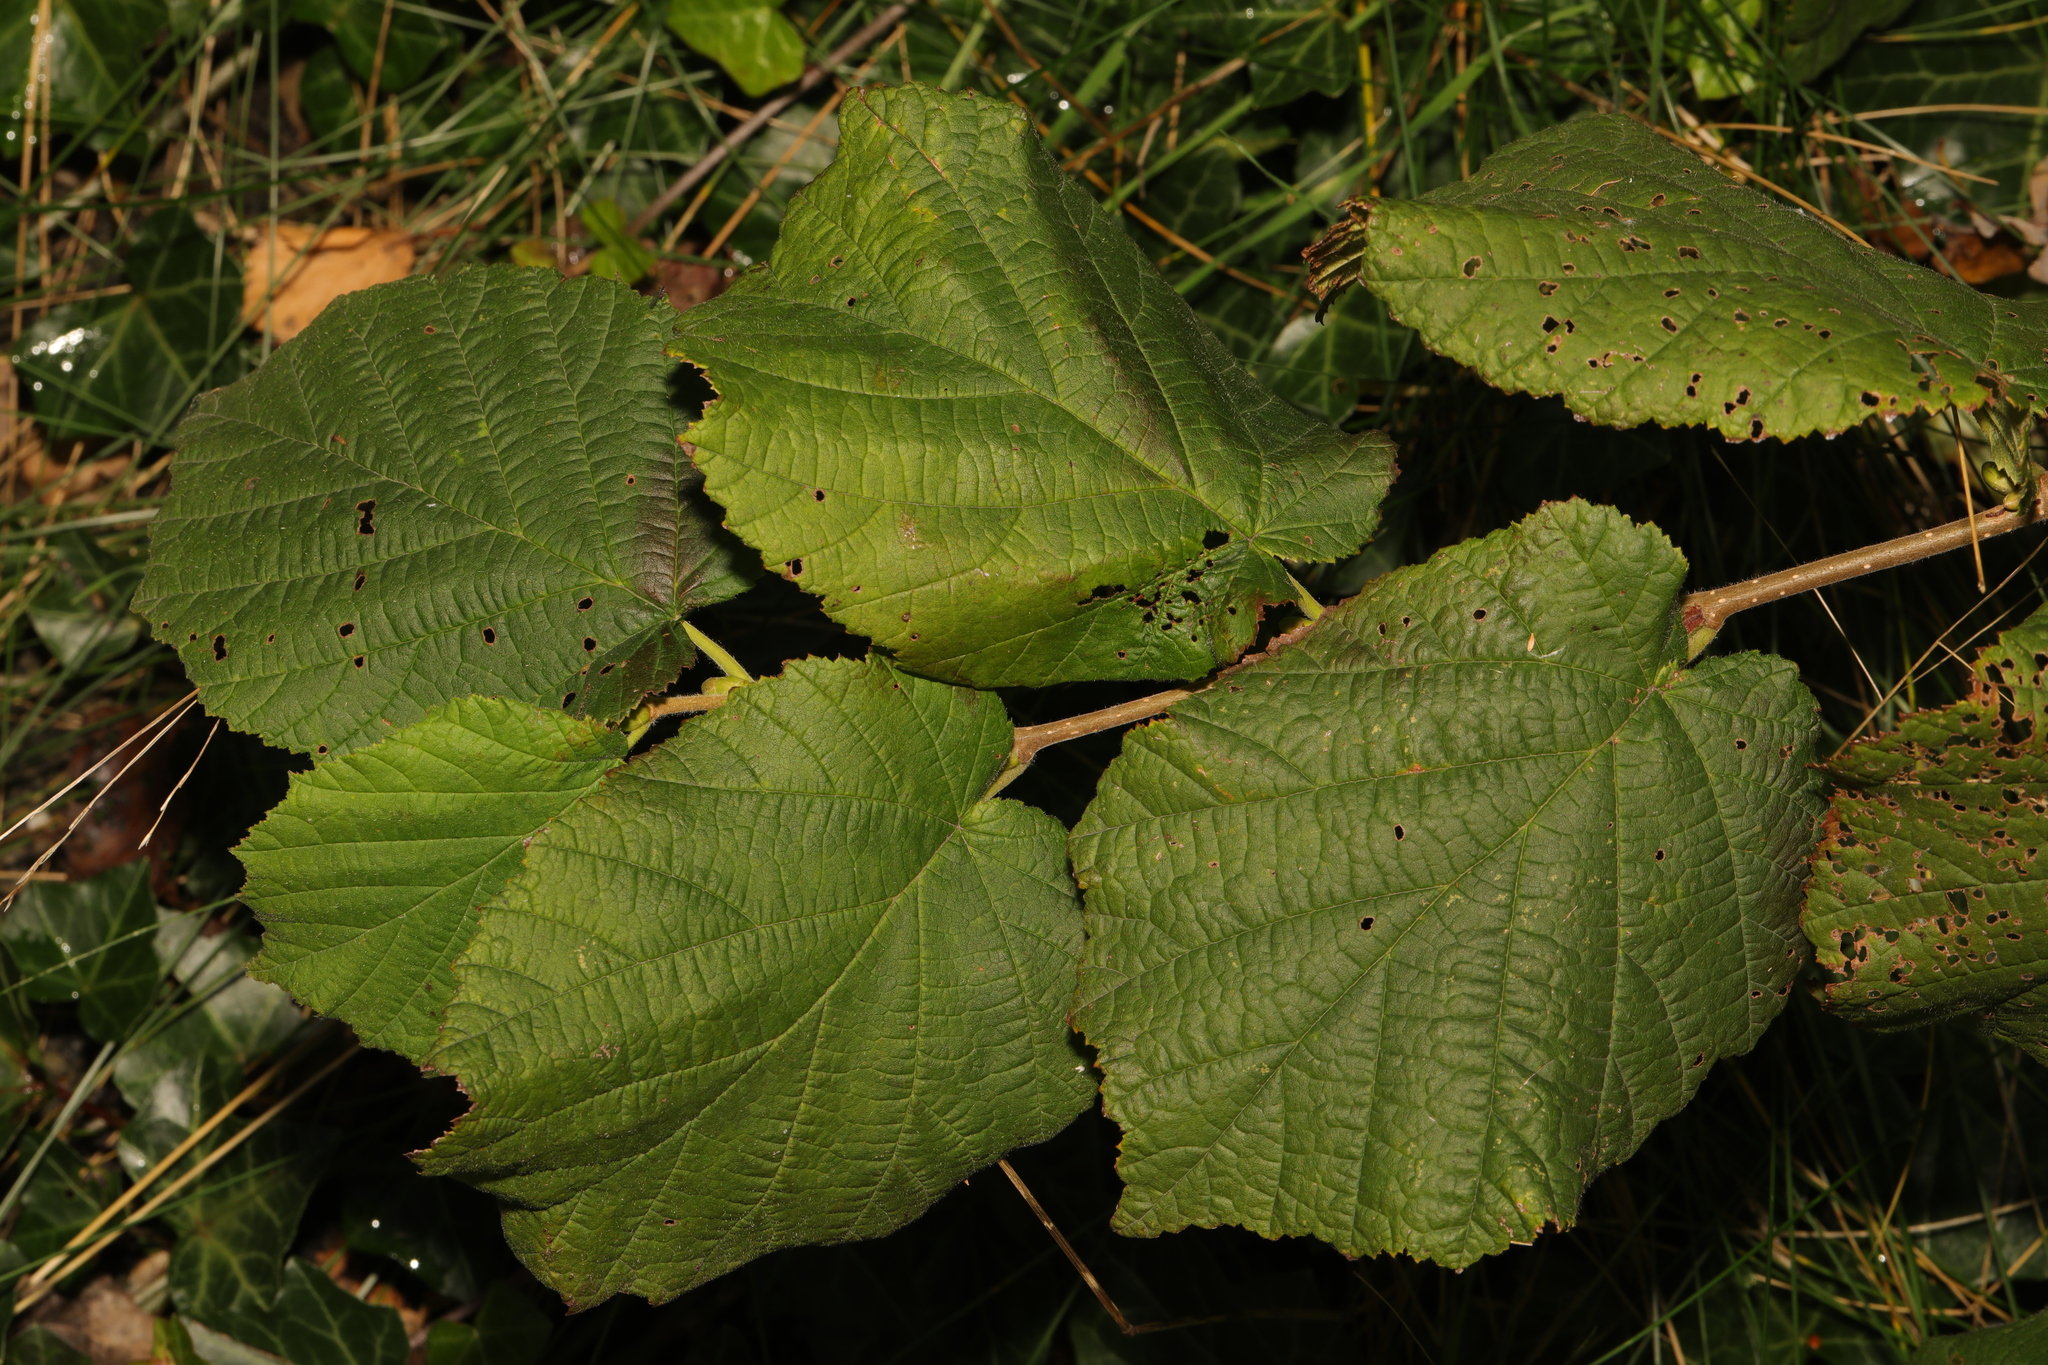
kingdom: Plantae
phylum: Tracheophyta
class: Magnoliopsida
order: Fagales
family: Betulaceae
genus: Corylus
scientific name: Corylus avellana
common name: European hazel
